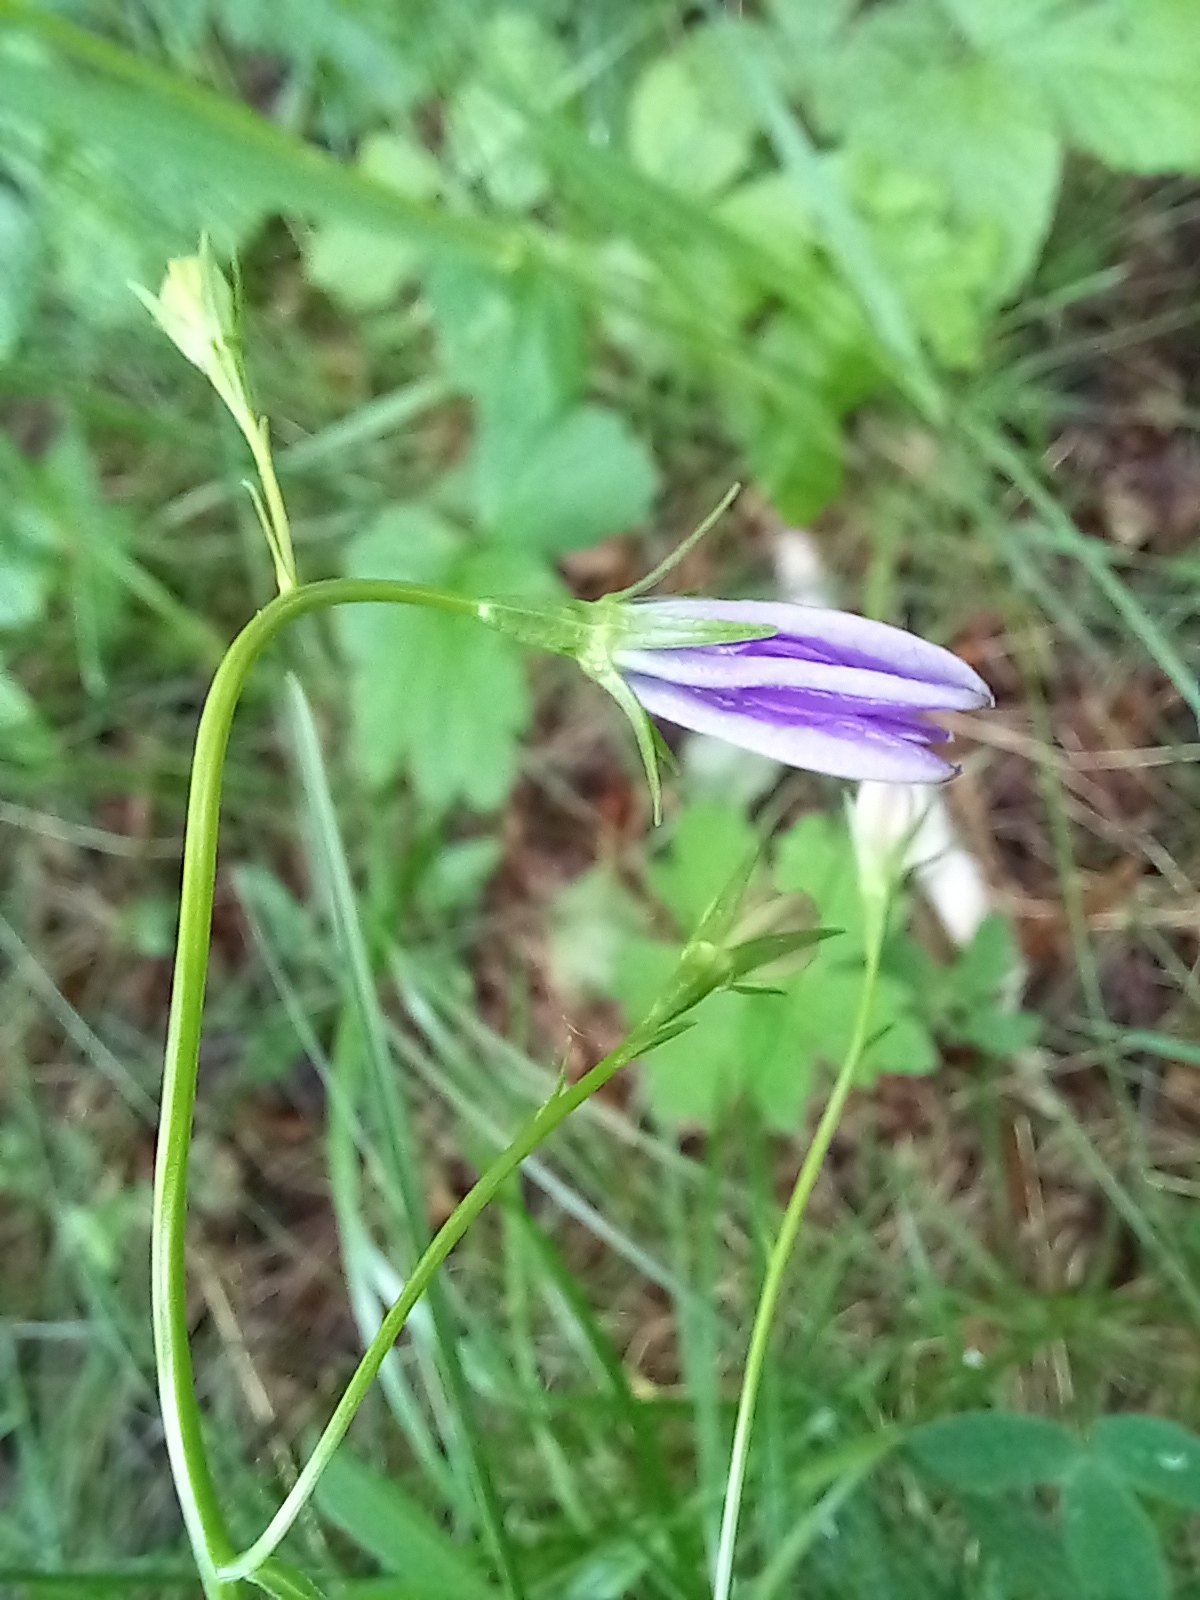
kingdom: Plantae
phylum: Tracheophyta
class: Magnoliopsida
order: Asterales
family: Campanulaceae
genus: Campanula
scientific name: Campanula persicifolia
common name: Peach-leaved bellflower
